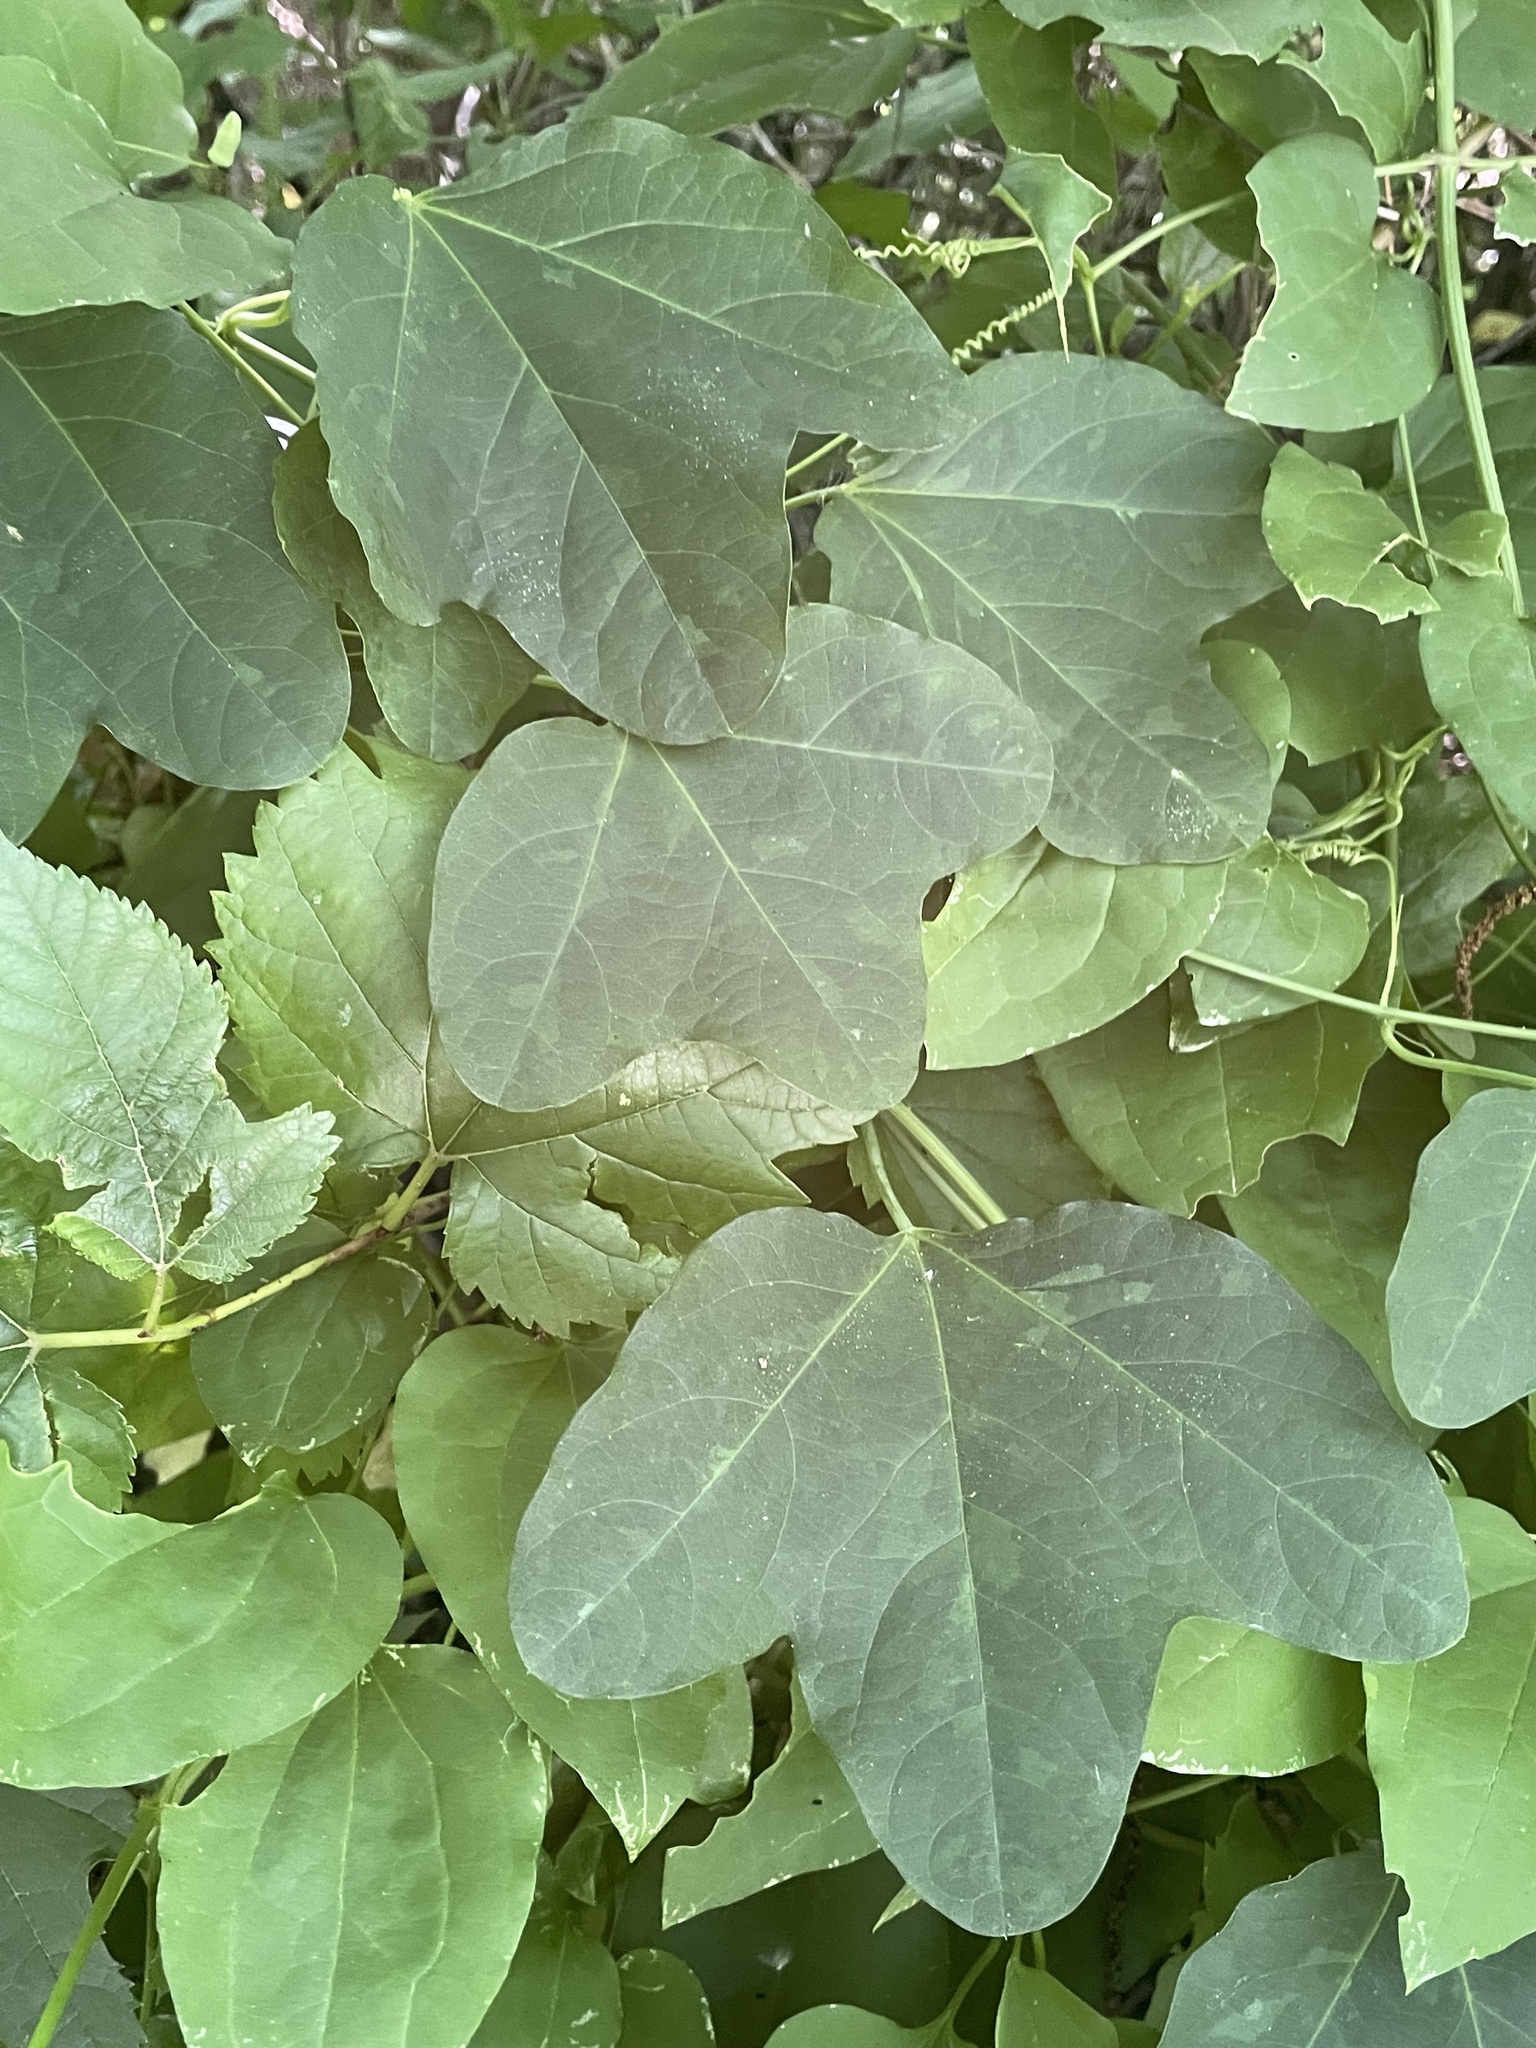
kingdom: Plantae
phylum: Tracheophyta
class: Magnoliopsida
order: Malpighiales
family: Passifloraceae
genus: Passiflora
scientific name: Passiflora lutea
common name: Yellow passionflower
